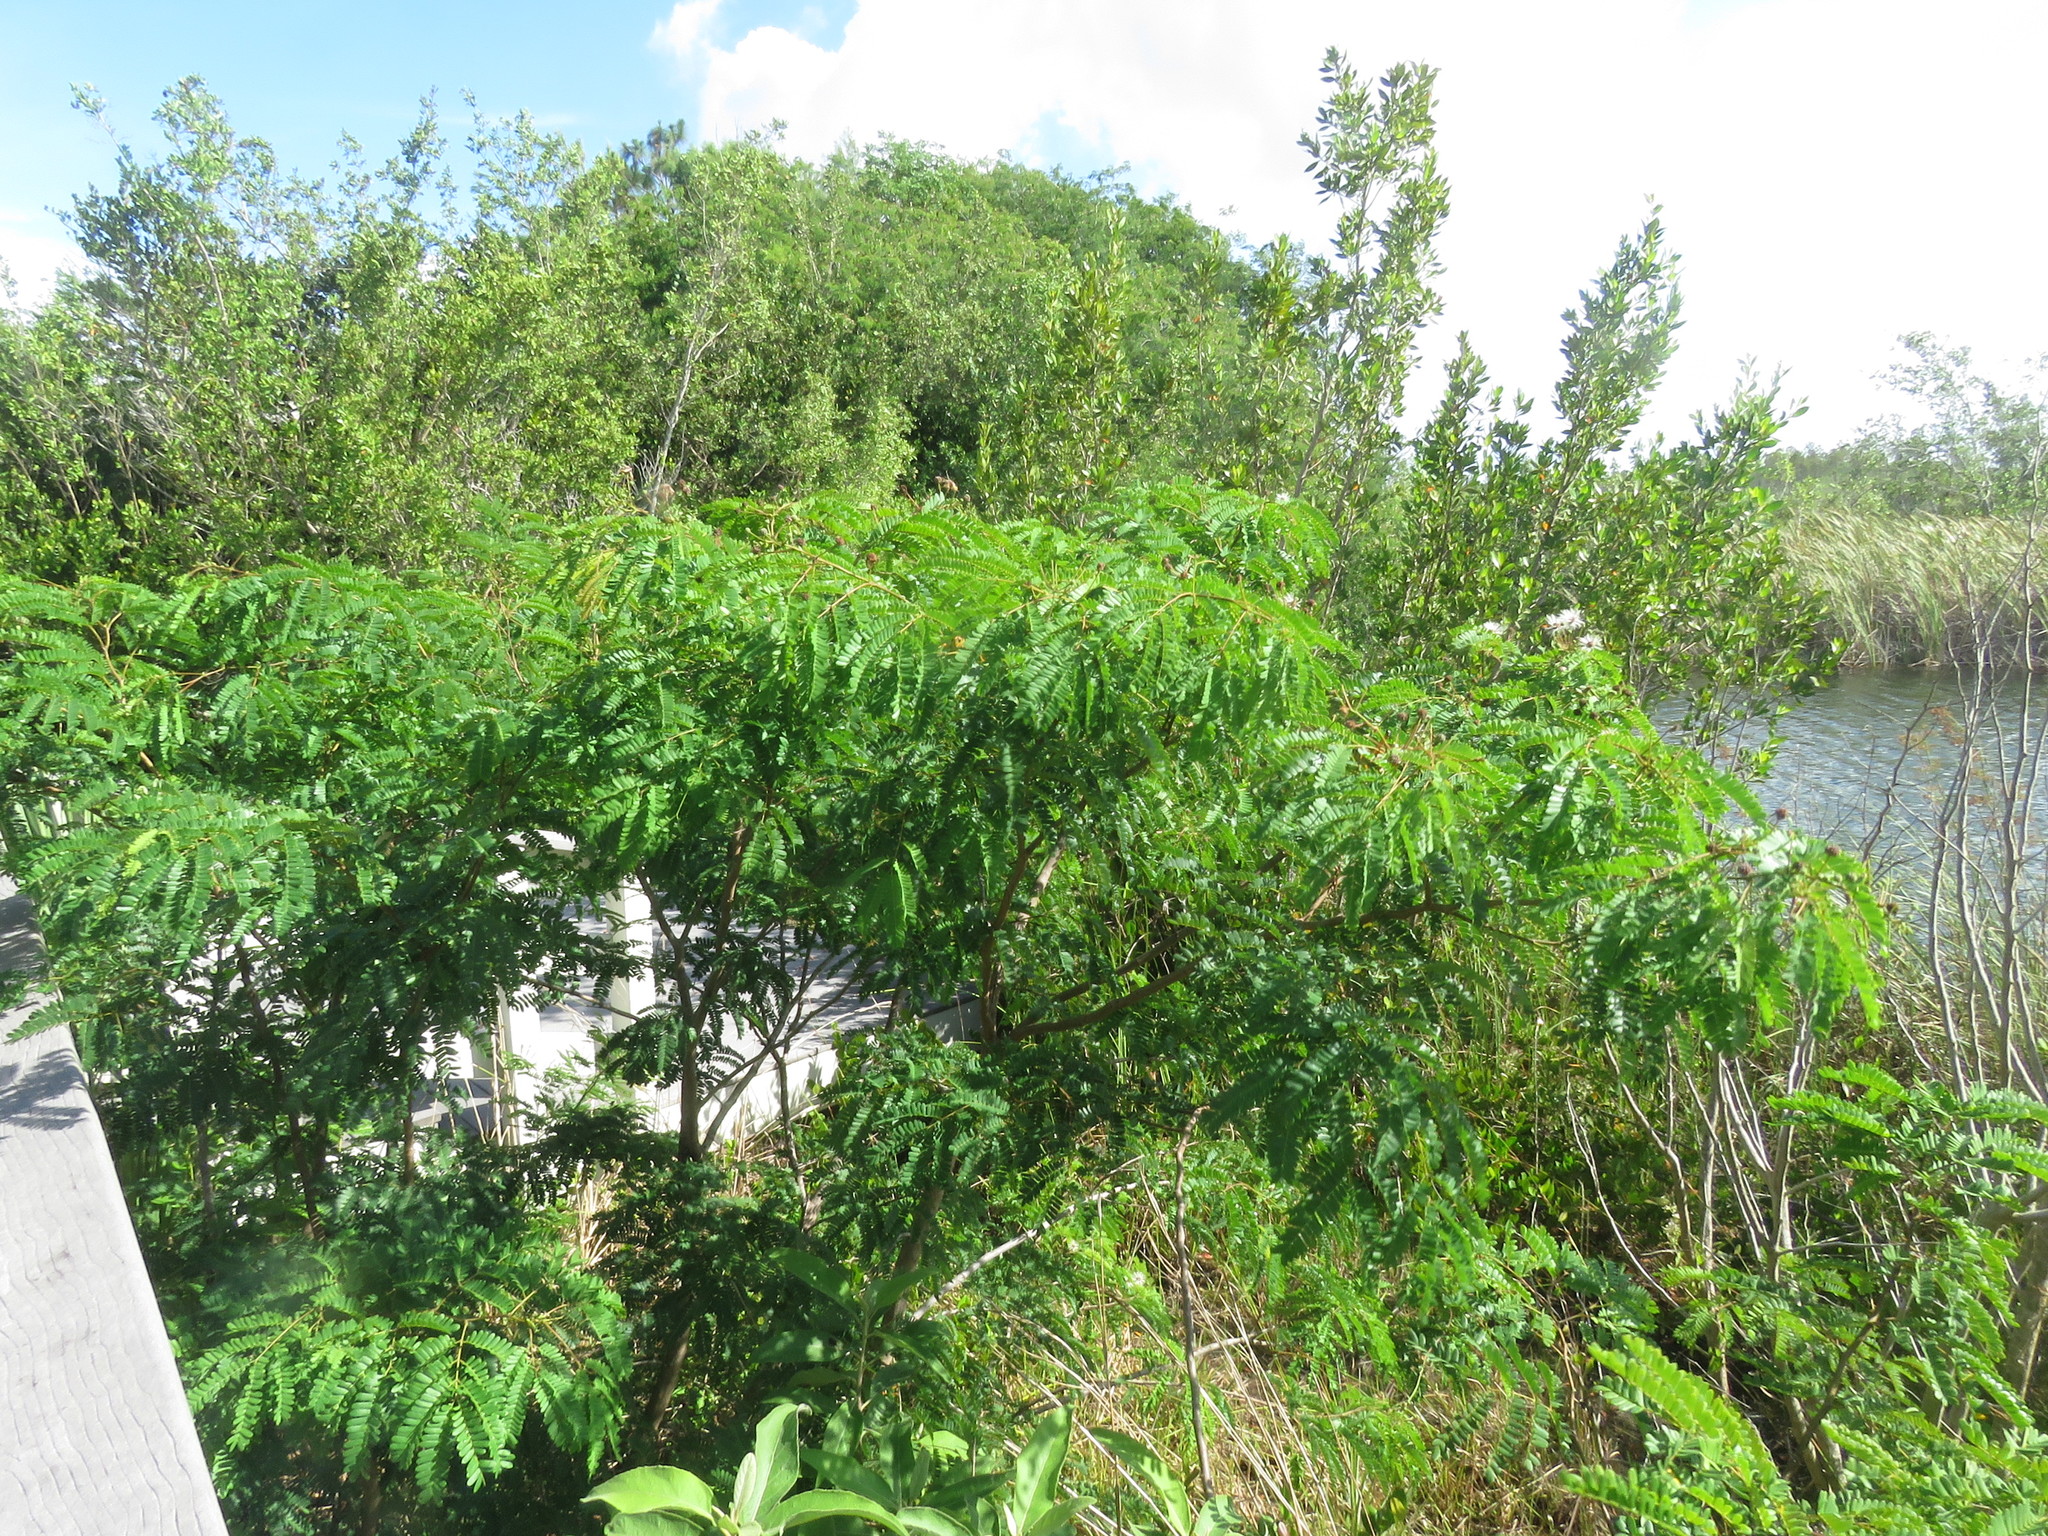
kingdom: Plantae
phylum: Tracheophyta
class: Magnoliopsida
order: Fabales
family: Fabaceae
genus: Lysiloma
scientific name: Lysiloma latisiliquum
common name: Wild tamarind
